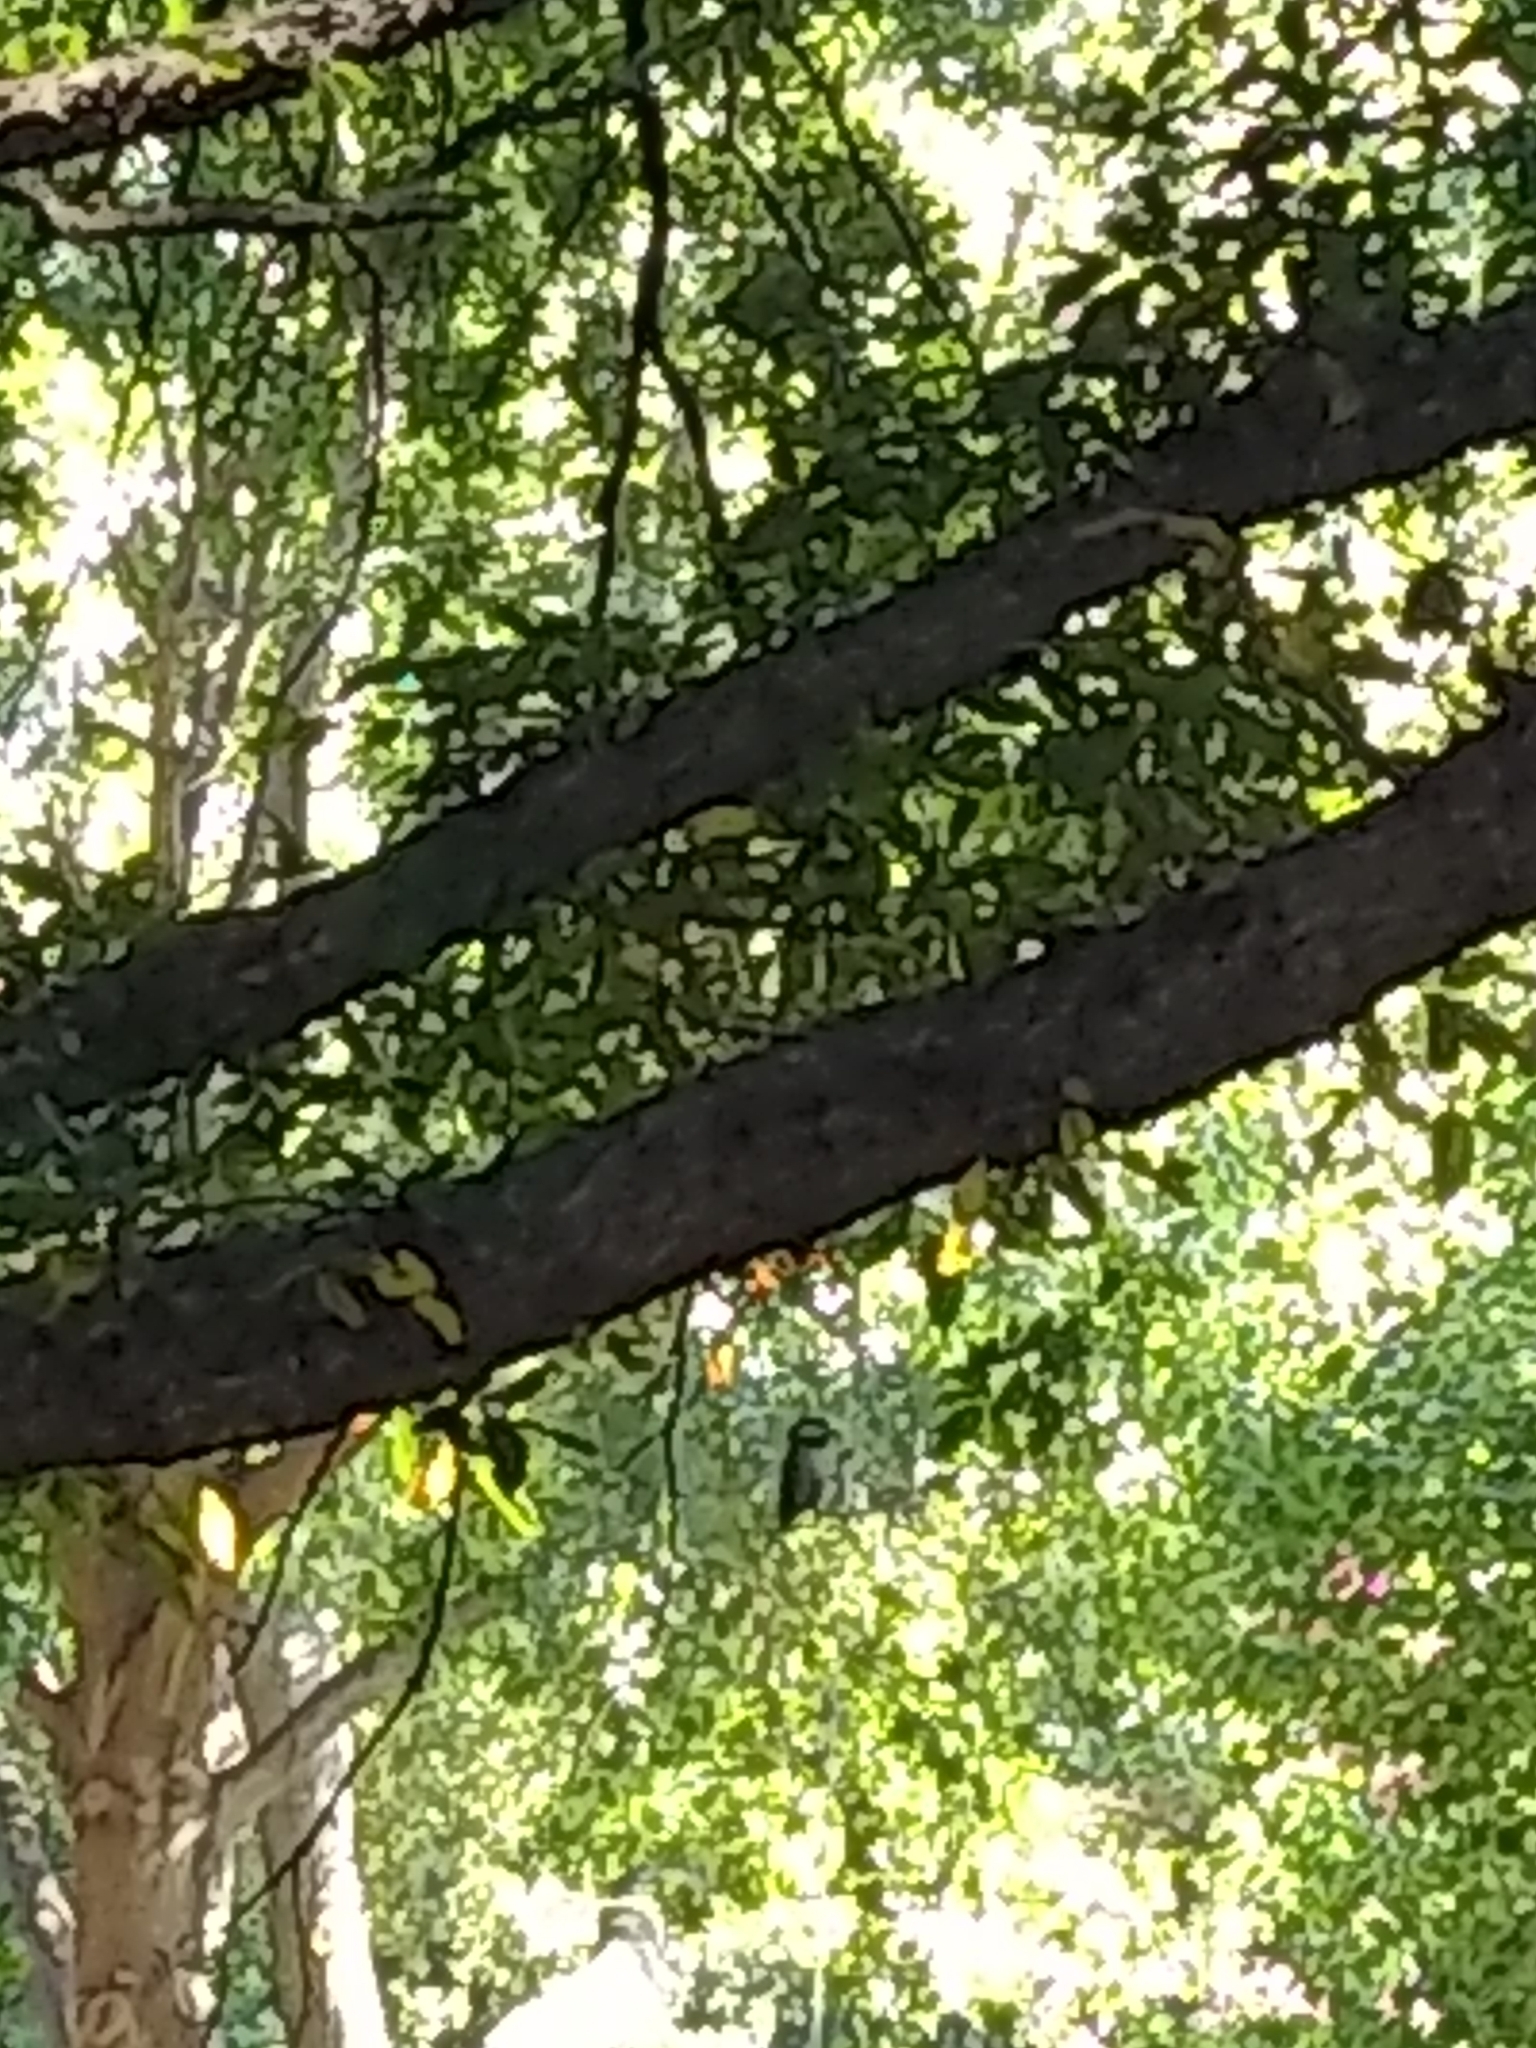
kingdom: Animalia
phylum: Chordata
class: Aves
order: Passeriformes
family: Paridae
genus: Poecile
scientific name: Poecile carolinensis
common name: Carolina chickadee
